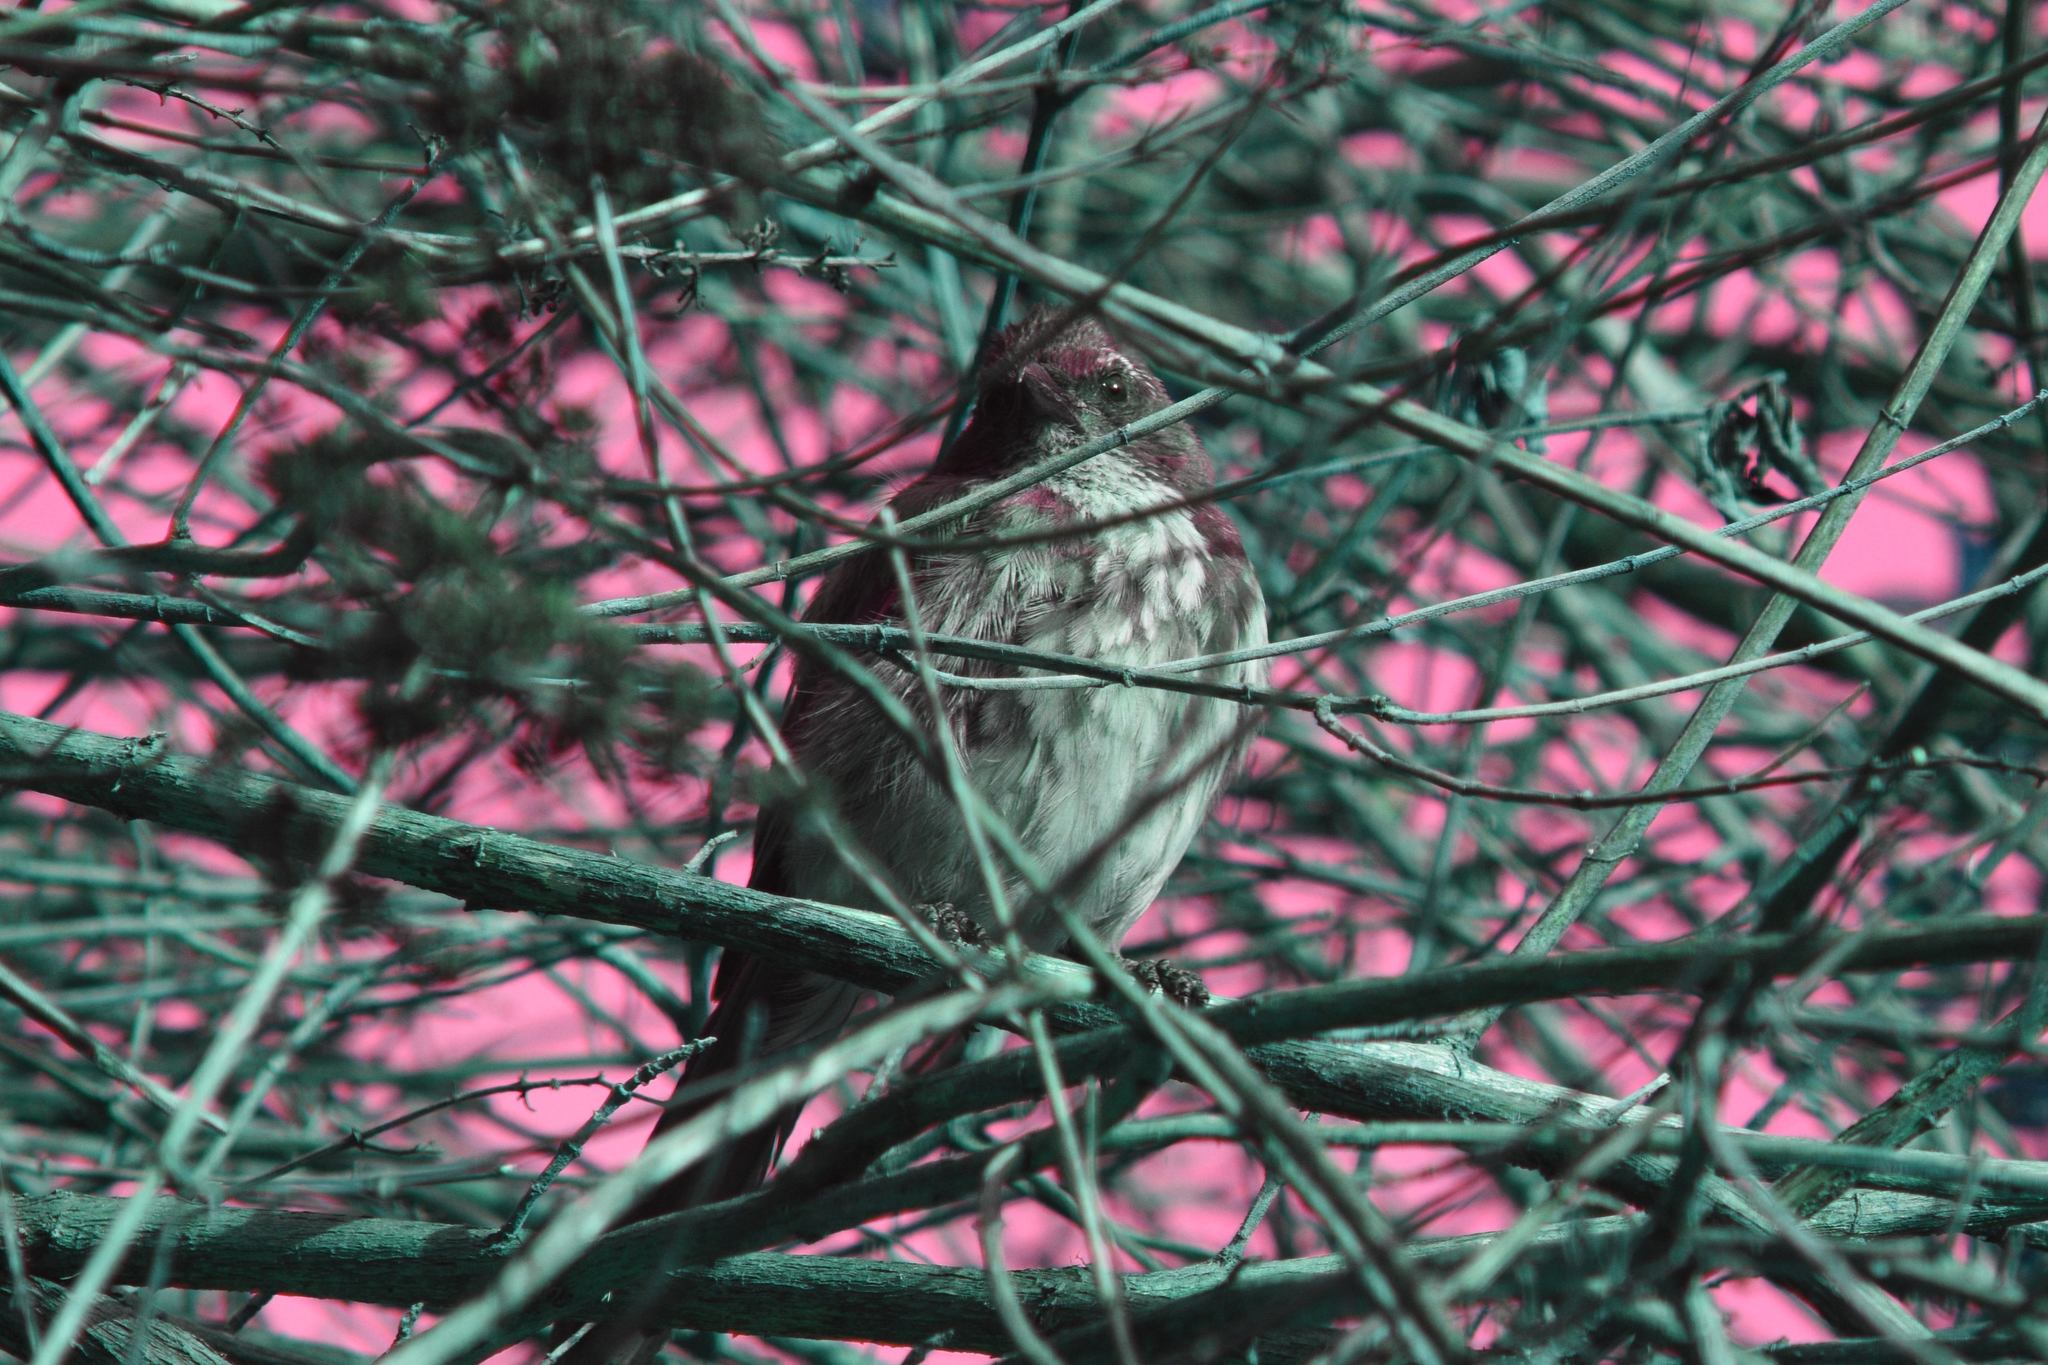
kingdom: Animalia
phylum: Chordata
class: Aves
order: Passeriformes
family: Corvidae
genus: Aphelocoma
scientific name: Aphelocoma californica
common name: California scrub-jay
